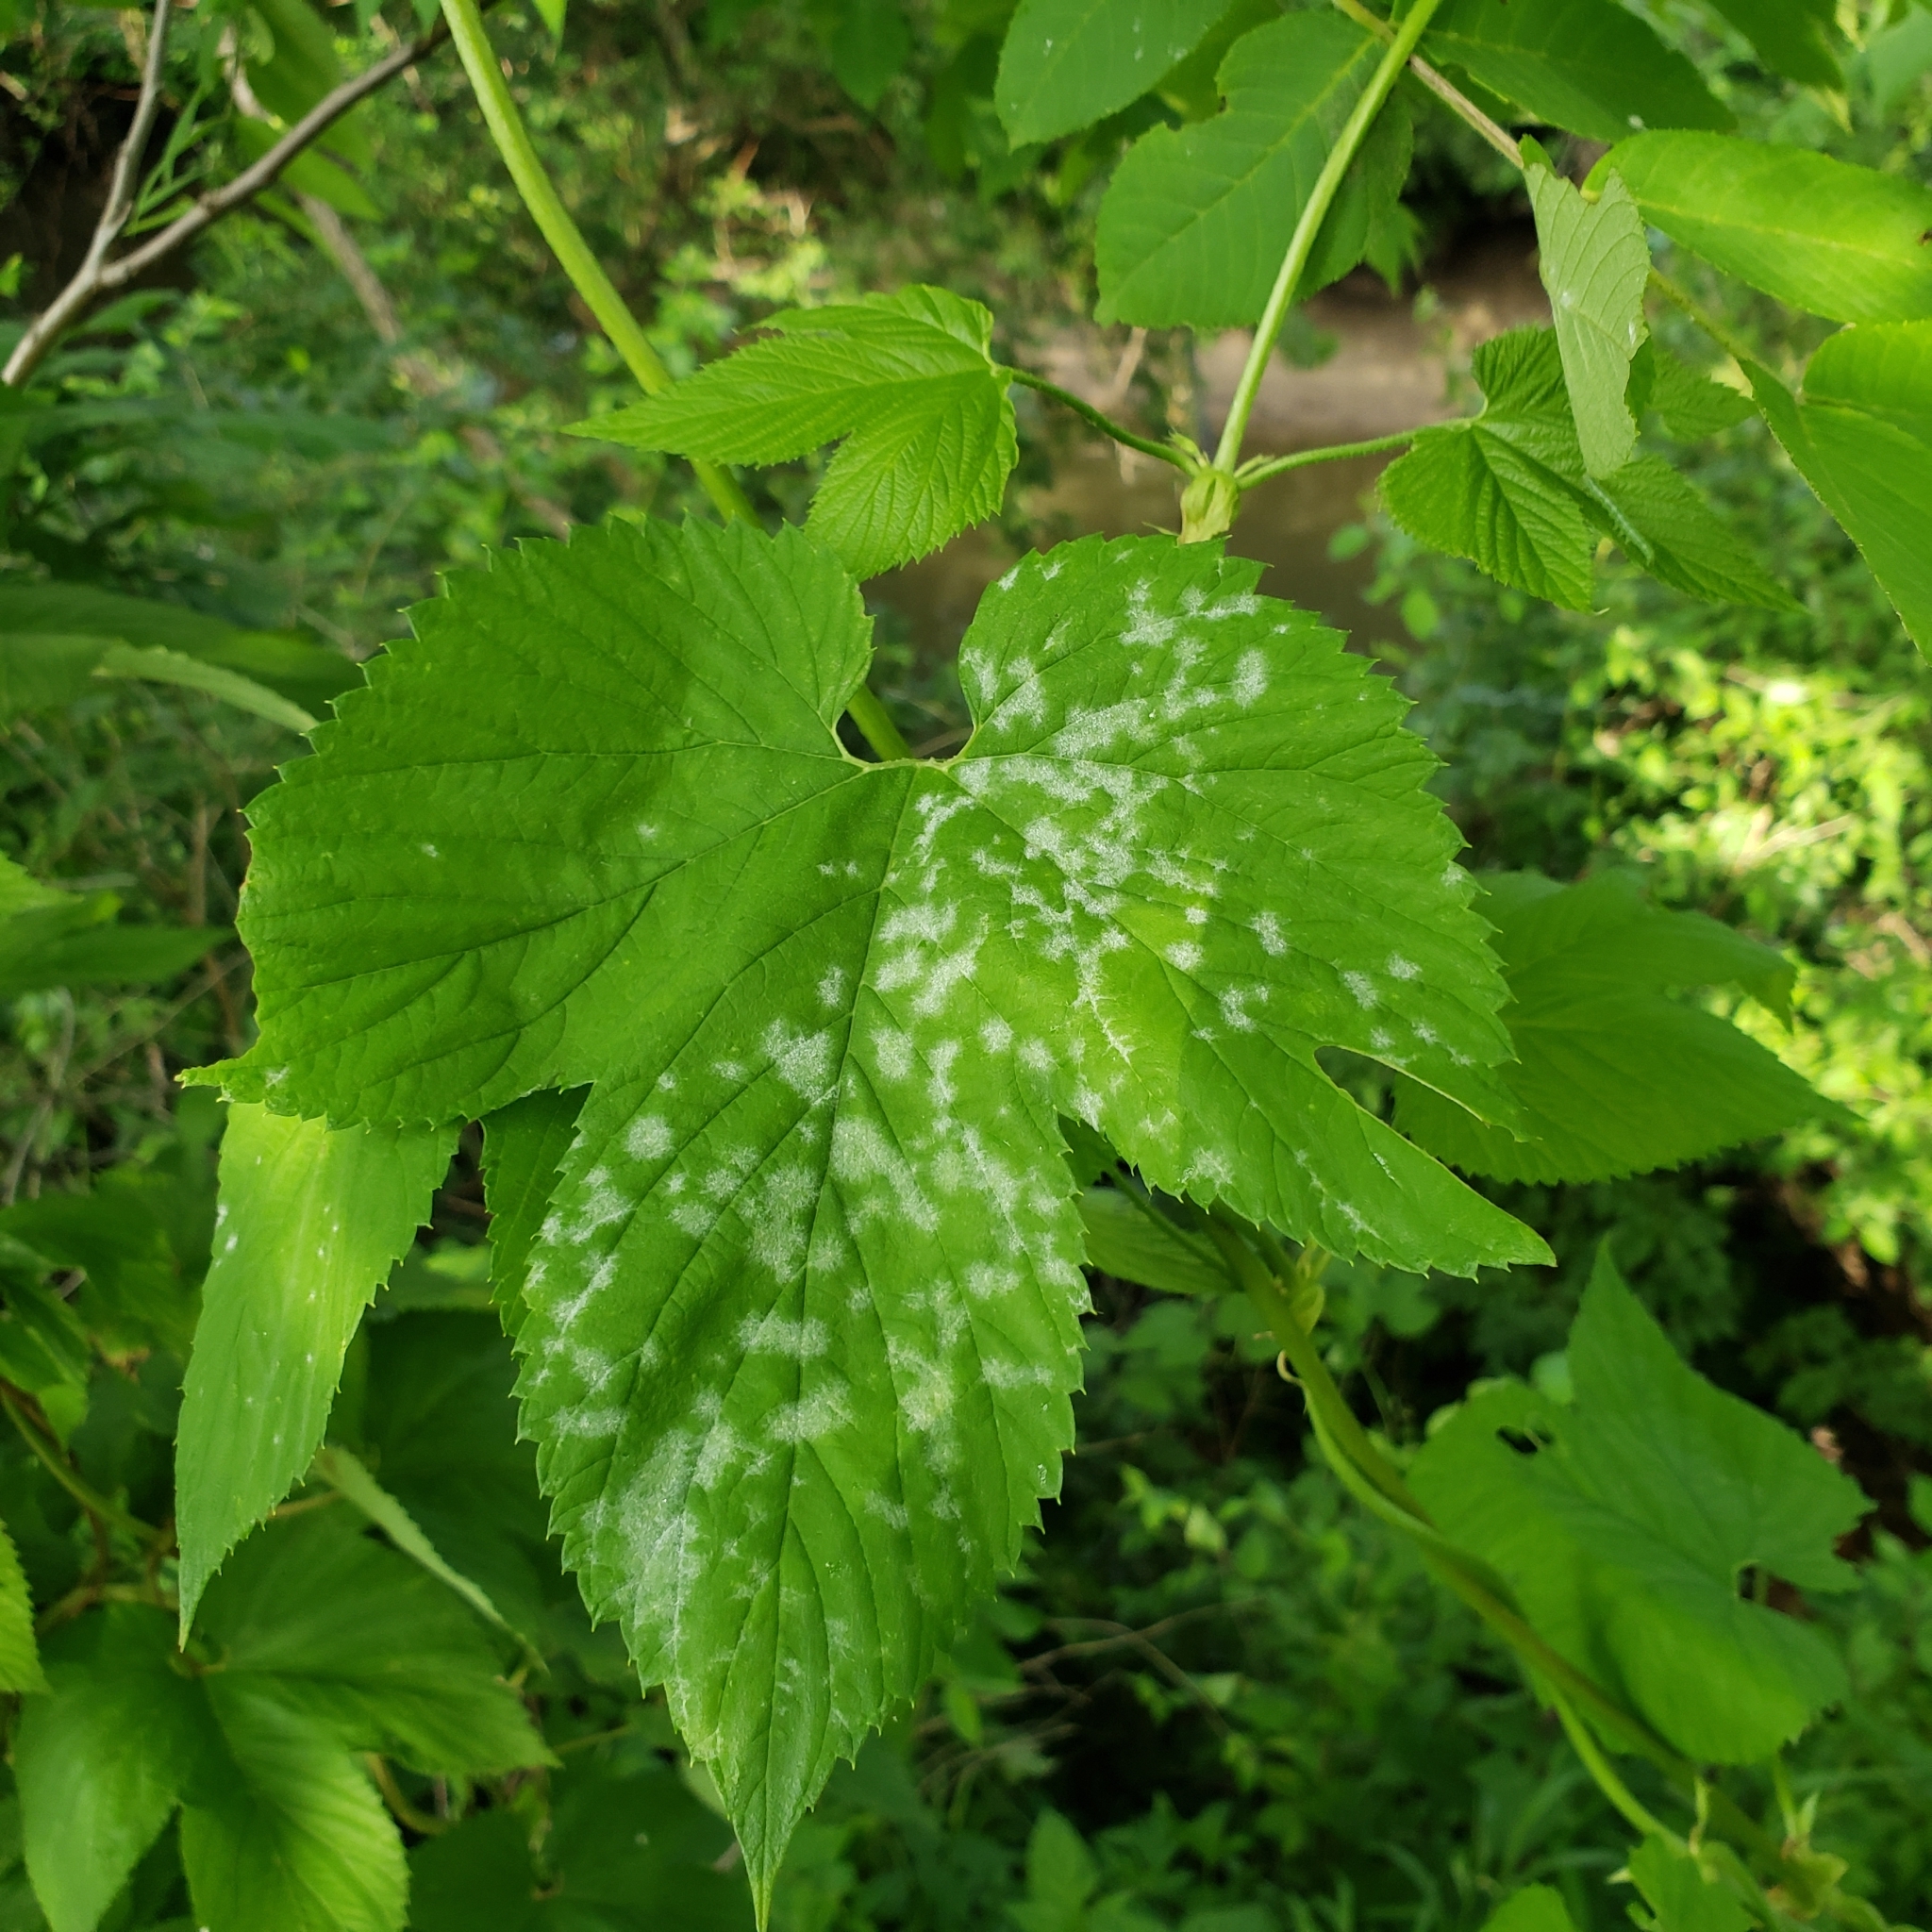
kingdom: Plantae
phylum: Tracheophyta
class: Magnoliopsida
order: Rosales
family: Cannabaceae
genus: Humulus
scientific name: Humulus lupulus
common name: Hop
